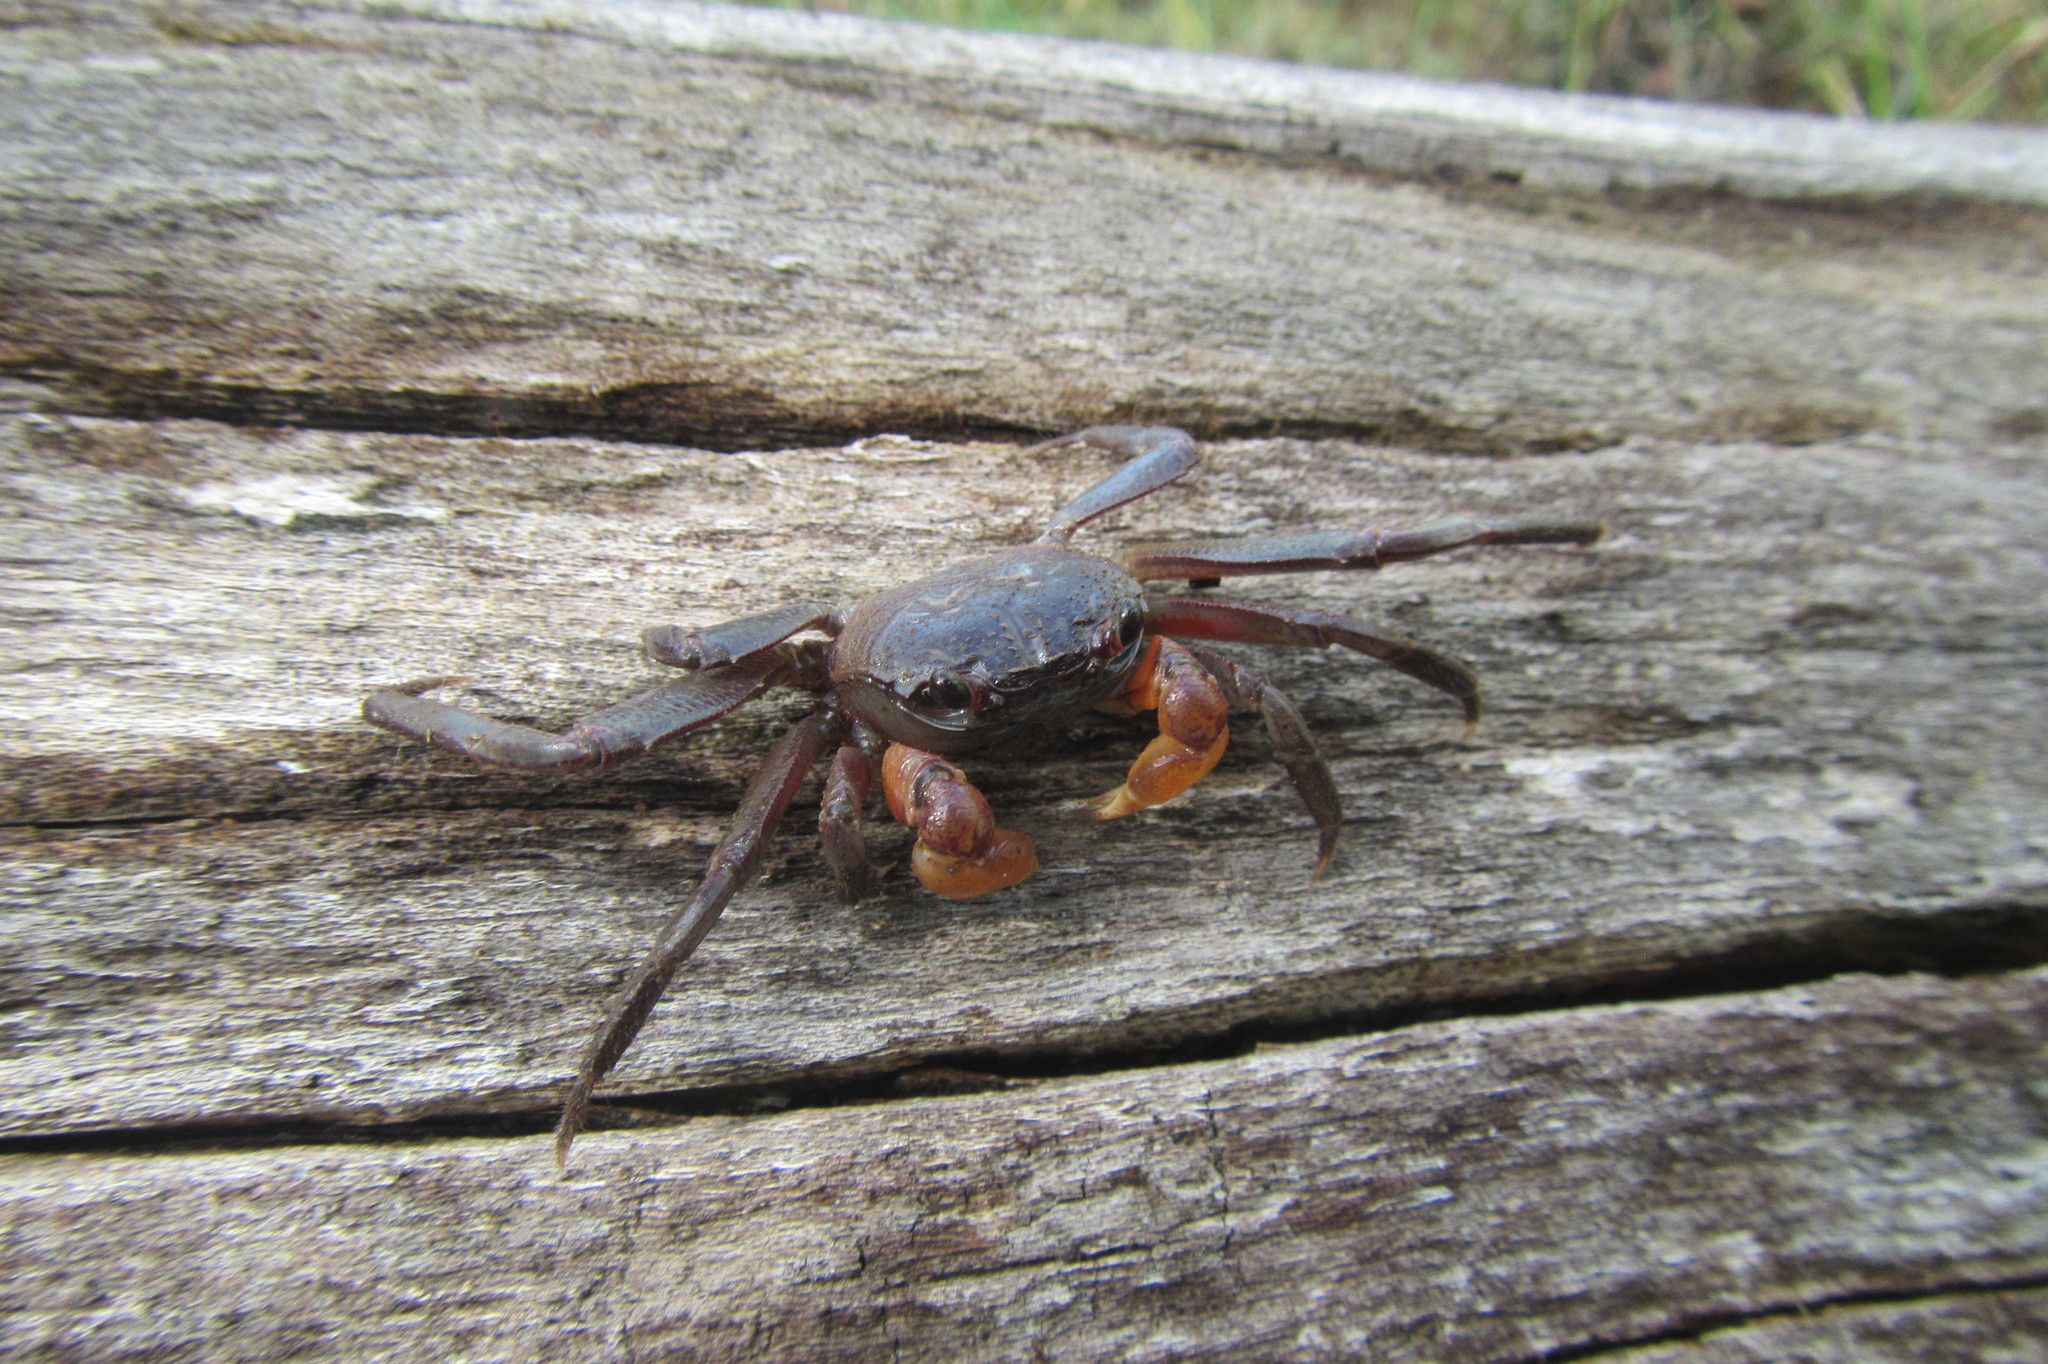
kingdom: Animalia
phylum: Arthropoda
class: Malacostraca
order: Decapoda
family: Sesarmidae
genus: Sesarmoides
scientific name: Sesarmoides borneensis
